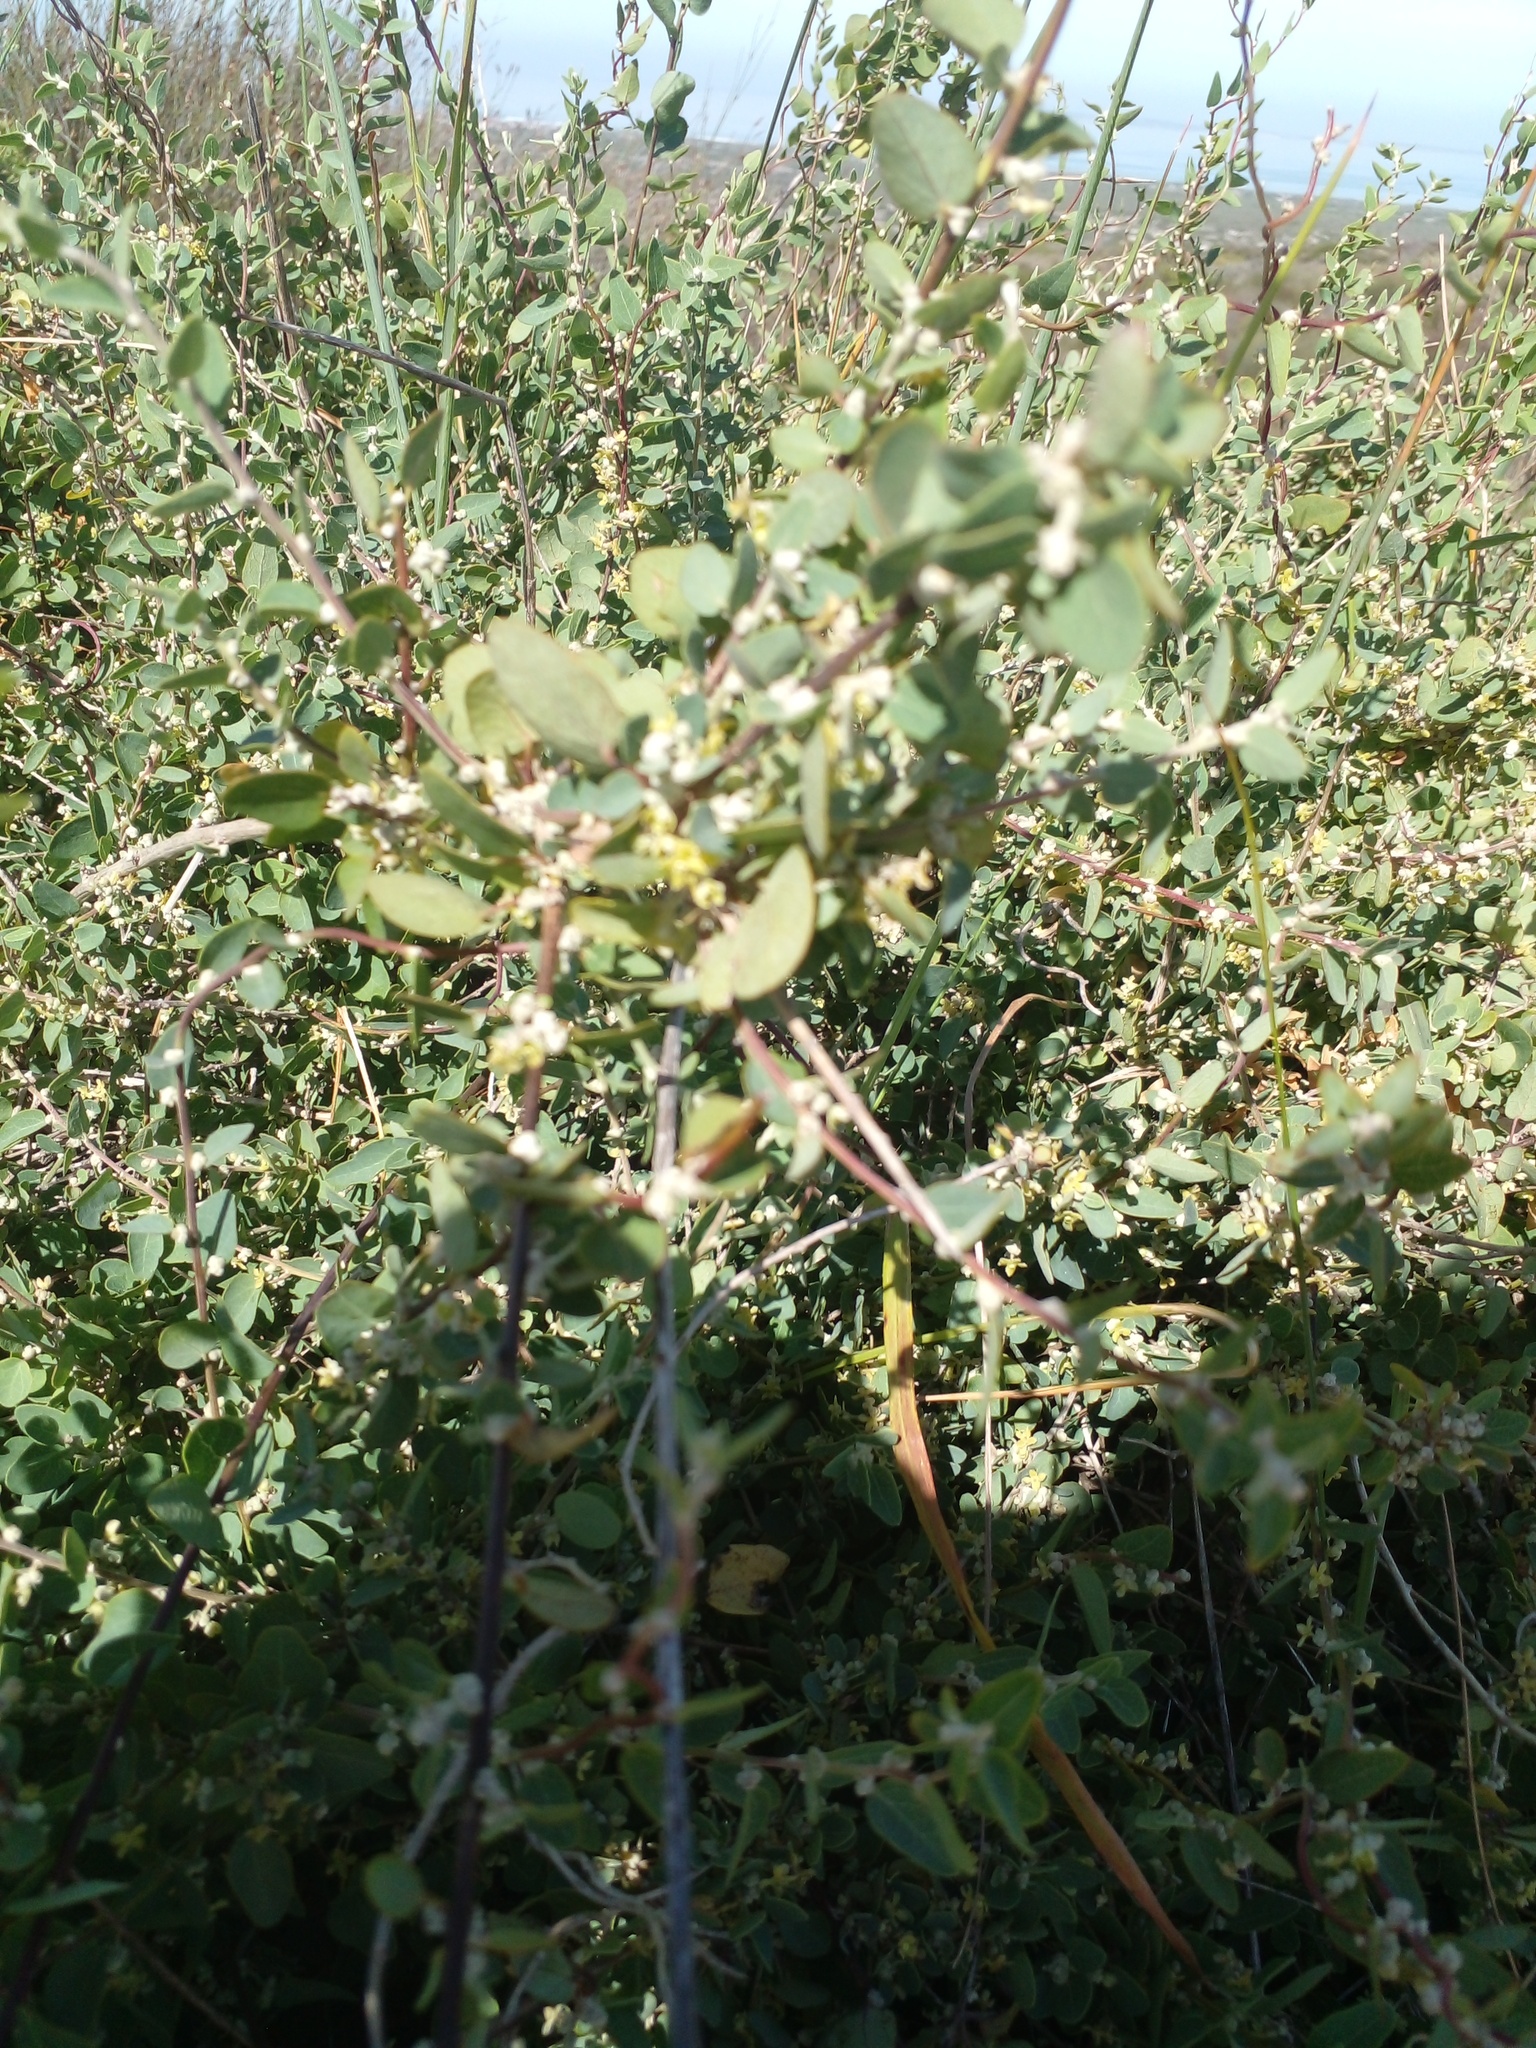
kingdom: Plantae
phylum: Tracheophyta
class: Magnoliopsida
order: Ranunculales
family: Menispermaceae
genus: Cissampelos
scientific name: Cissampelos capensis
